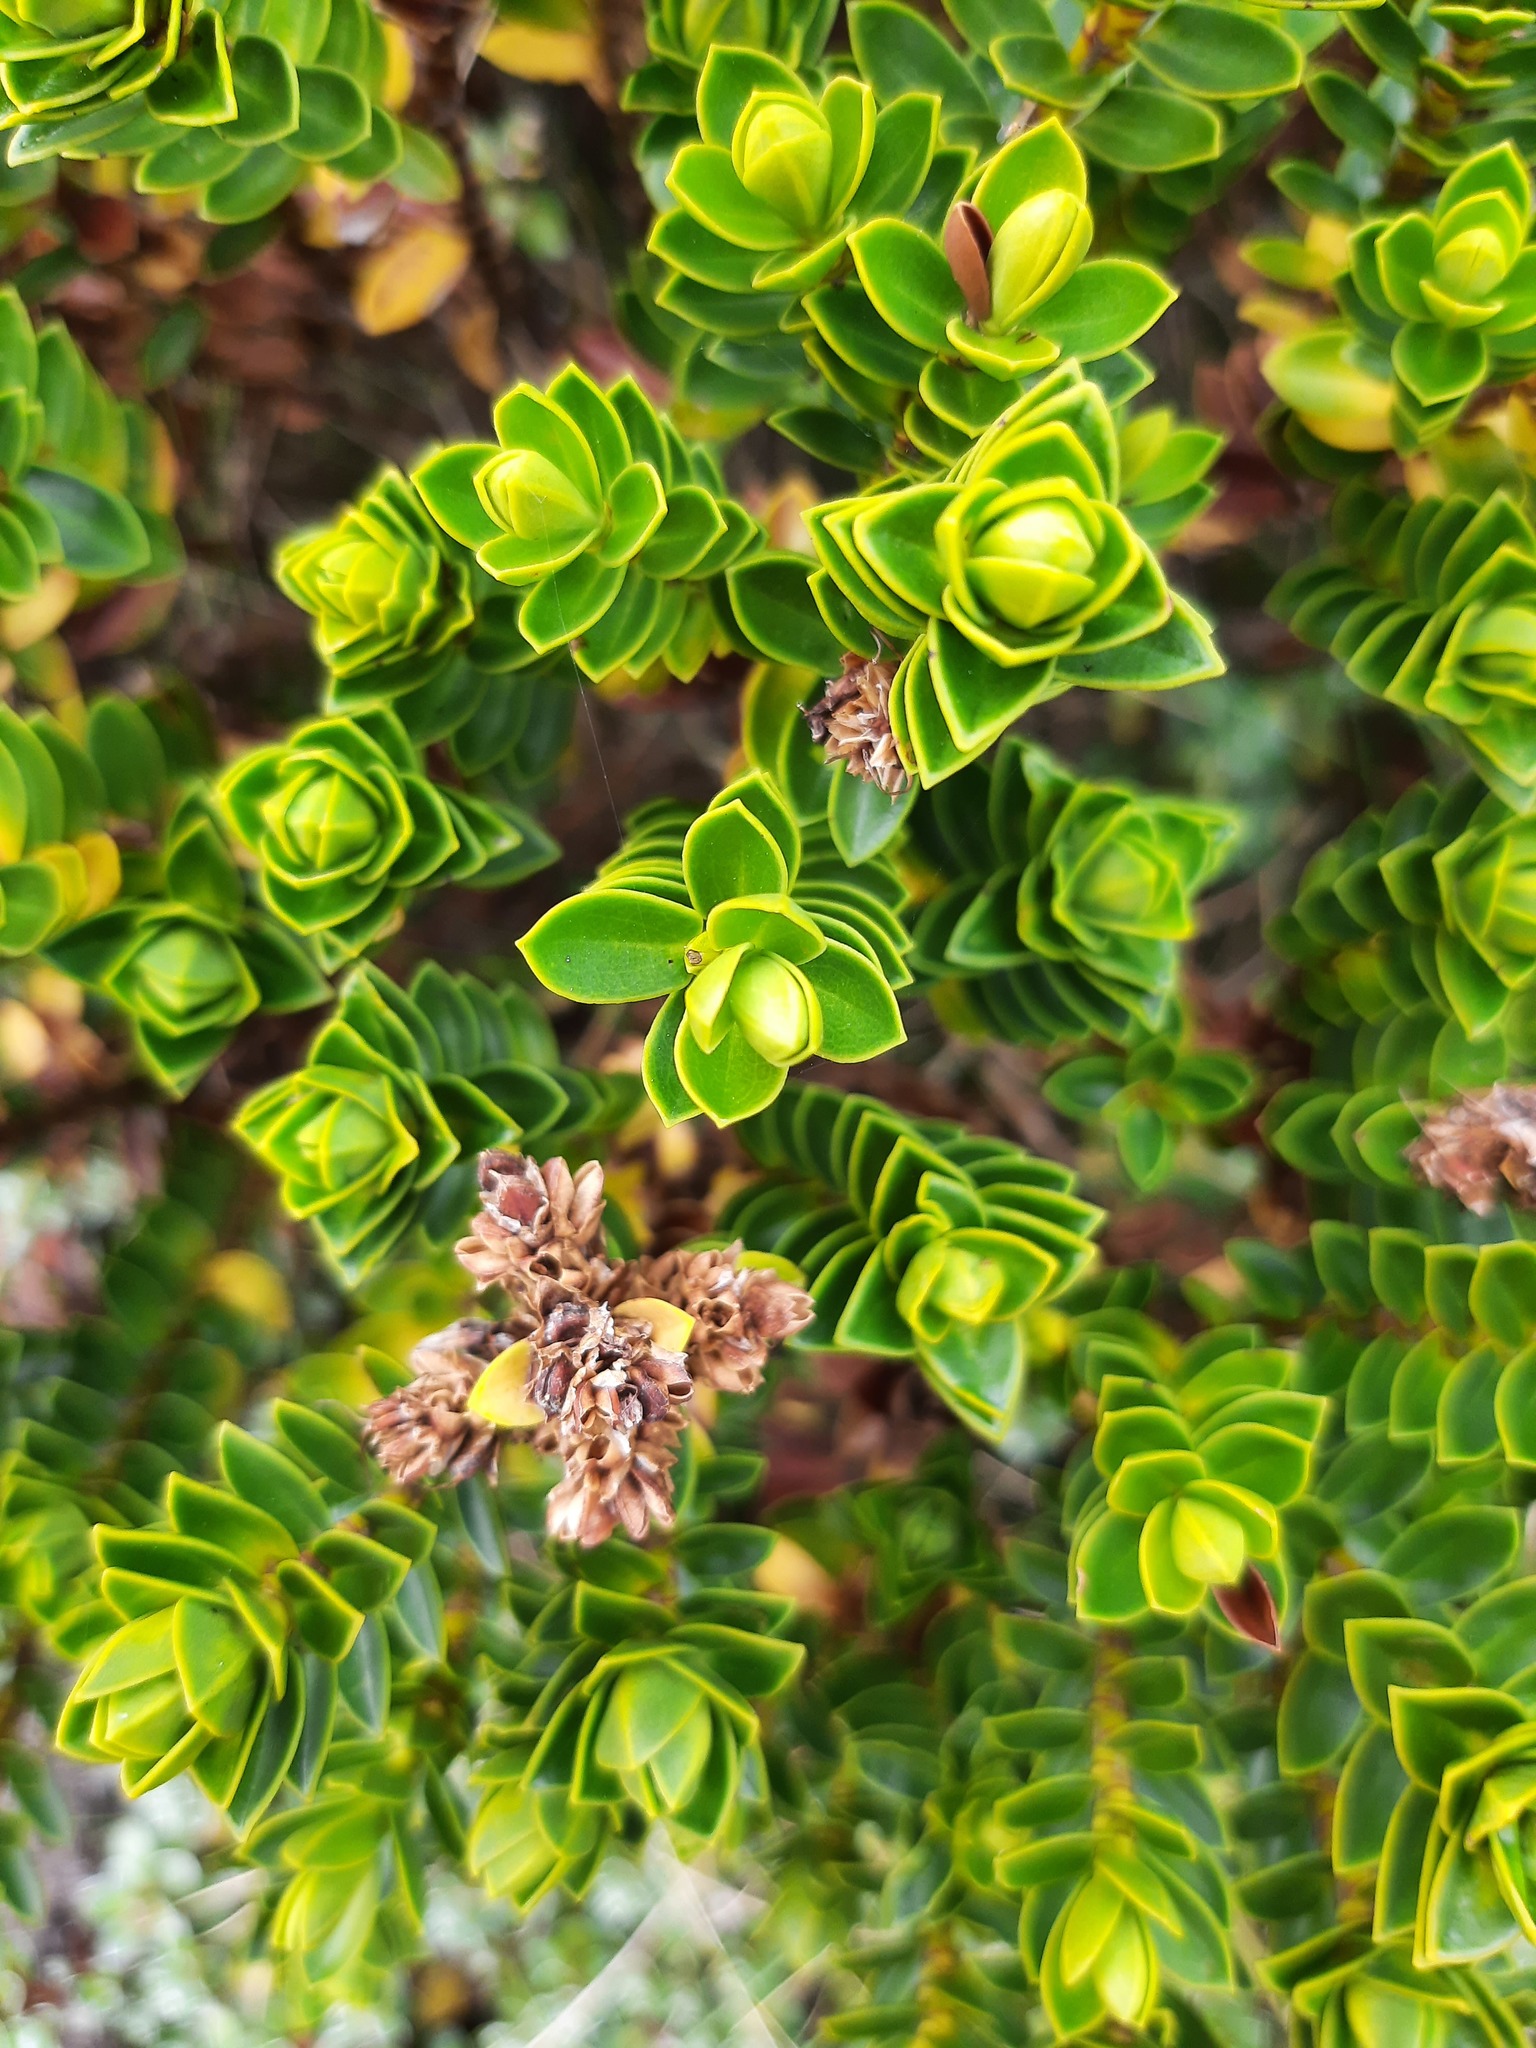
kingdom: Plantae
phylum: Tracheophyta
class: Magnoliopsida
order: Lamiales
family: Plantaginaceae
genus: Veronica
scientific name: Veronica odora
